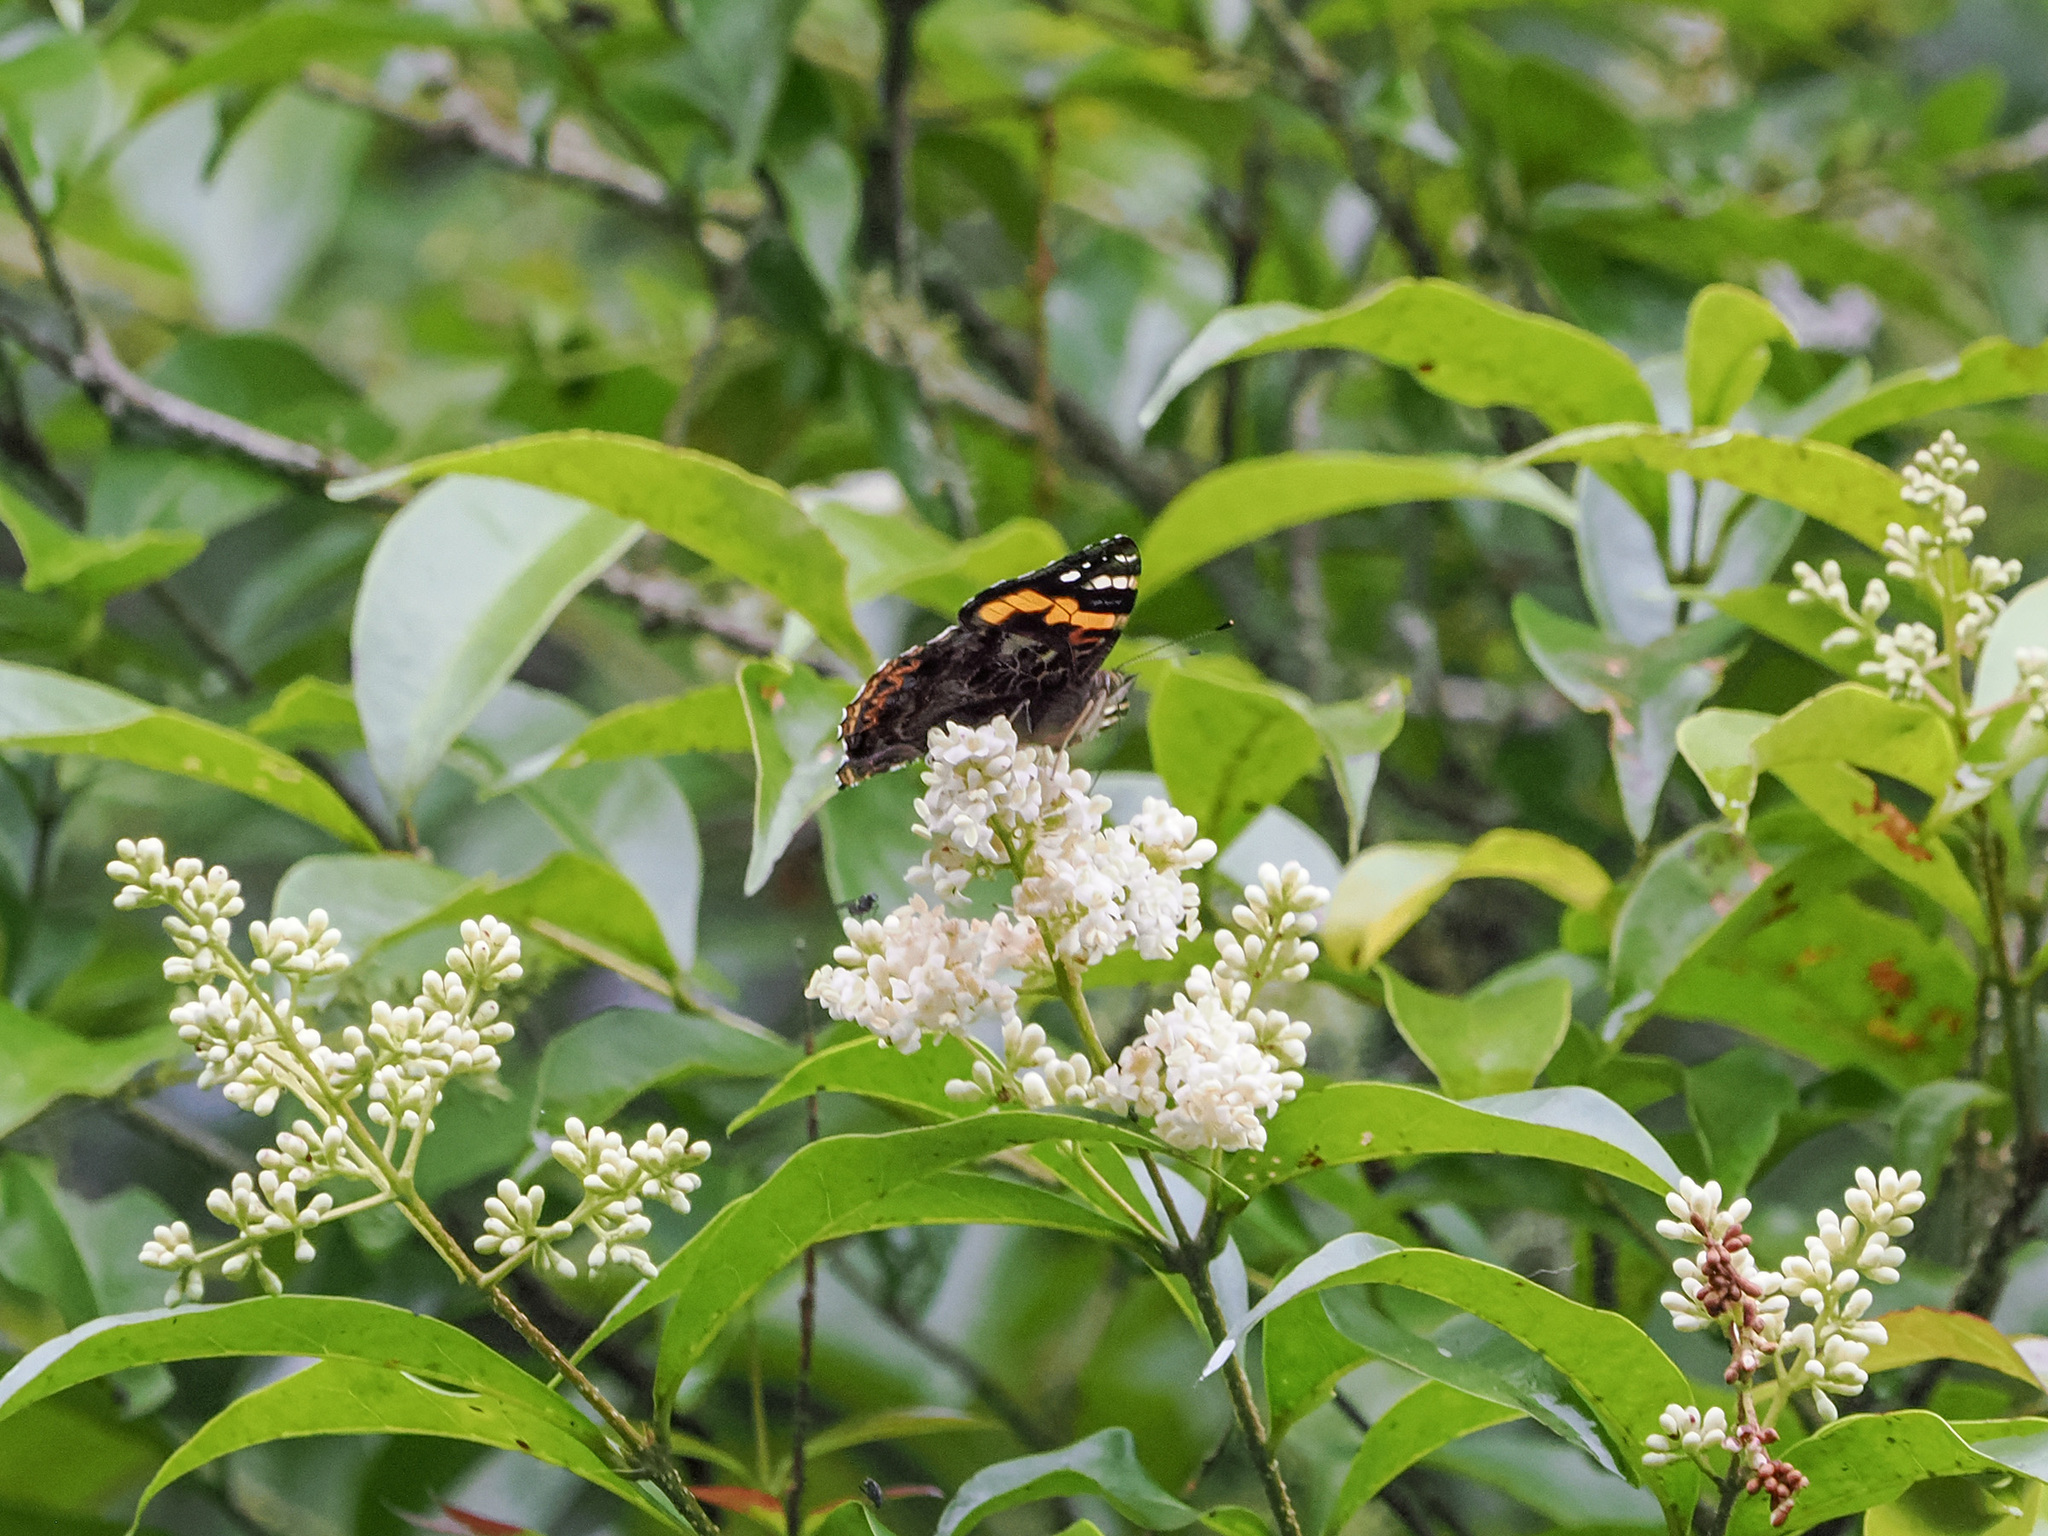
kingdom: Animalia
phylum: Arthropoda
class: Insecta
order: Lepidoptera
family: Nymphalidae
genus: Vanessa
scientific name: Vanessa buana
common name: Lompobatang lady
